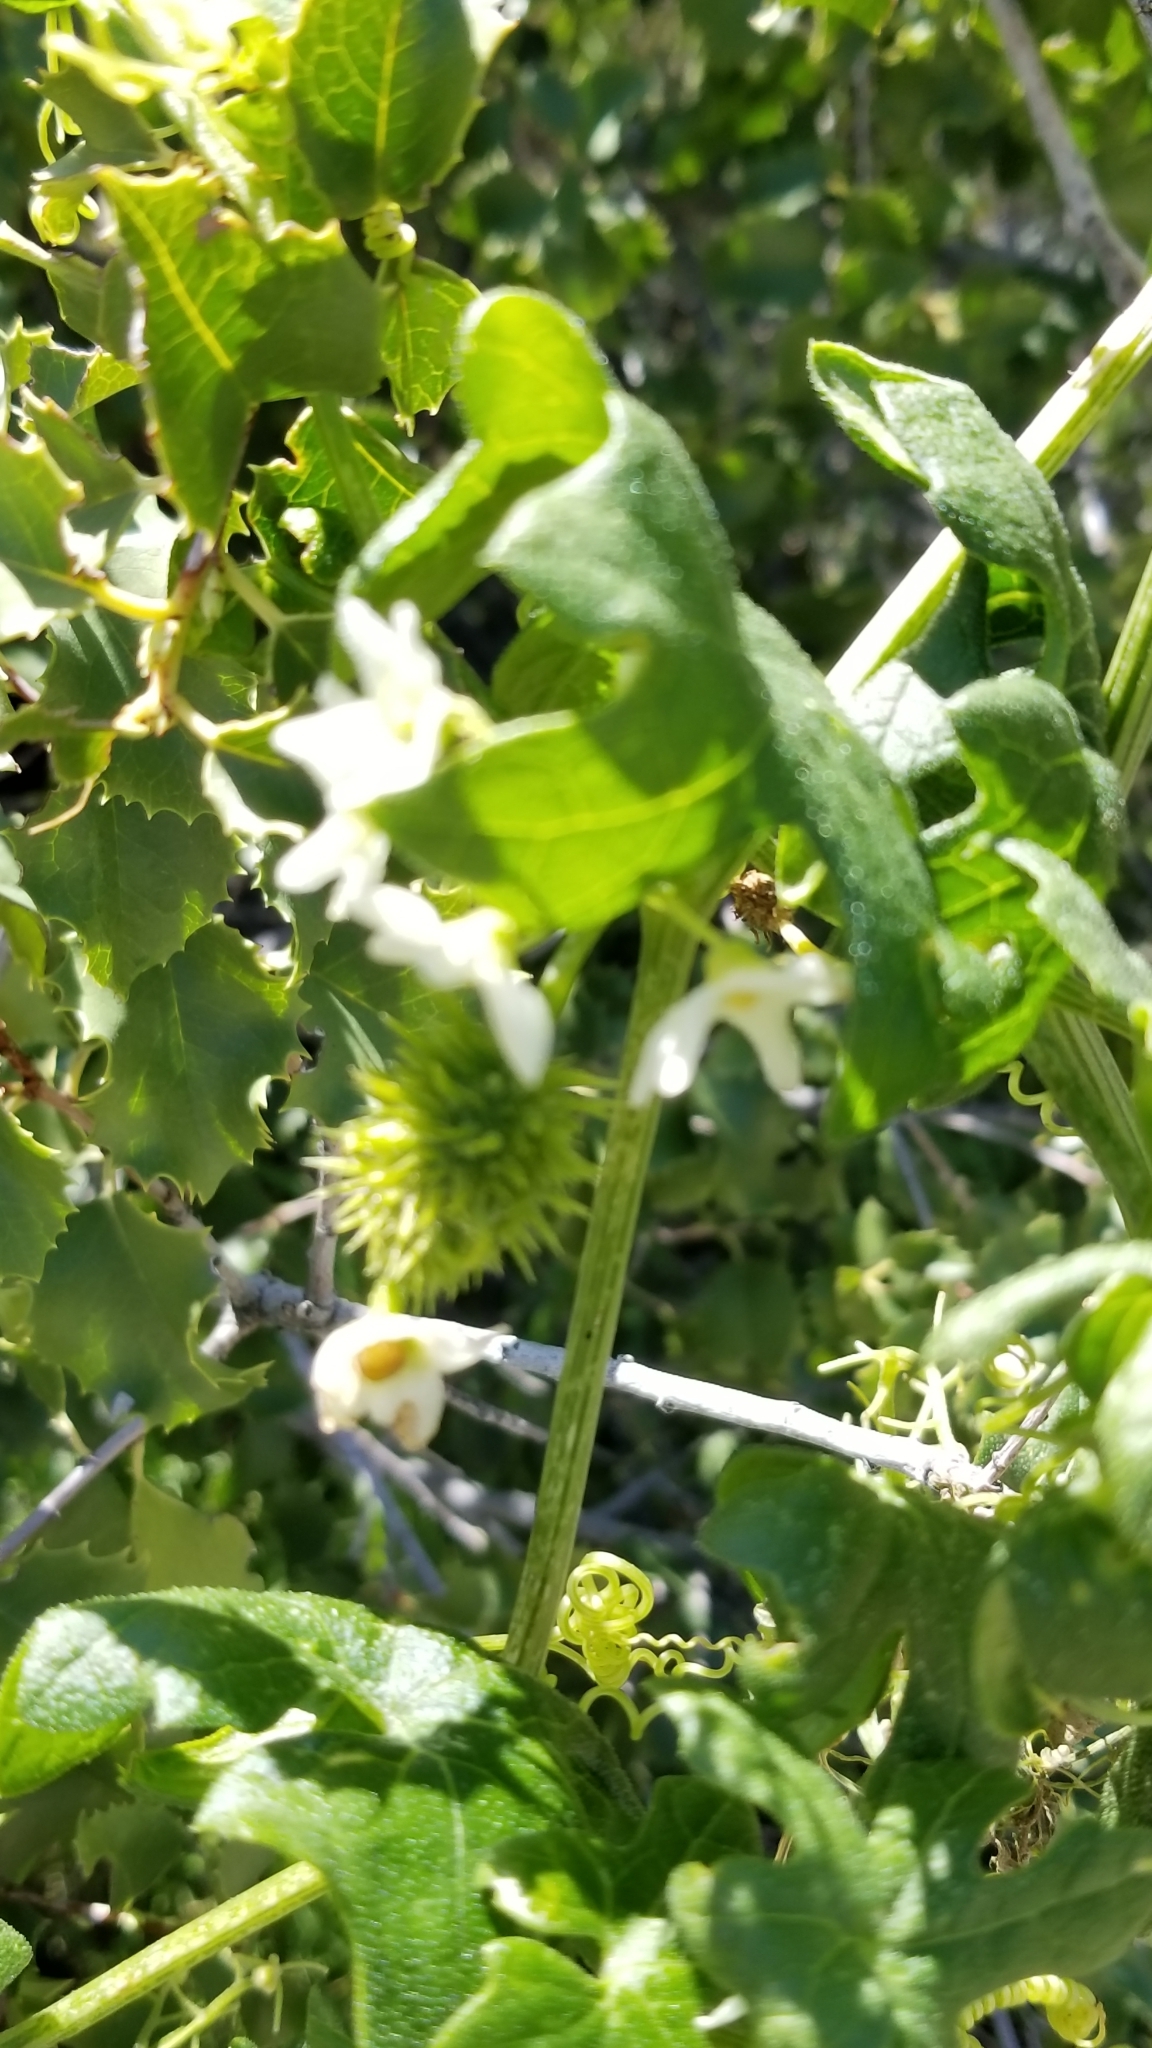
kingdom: Plantae
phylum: Tracheophyta
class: Magnoliopsida
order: Cucurbitales
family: Cucurbitaceae
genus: Marah
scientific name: Marah macrocarpa
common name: Cucamonga manroot
